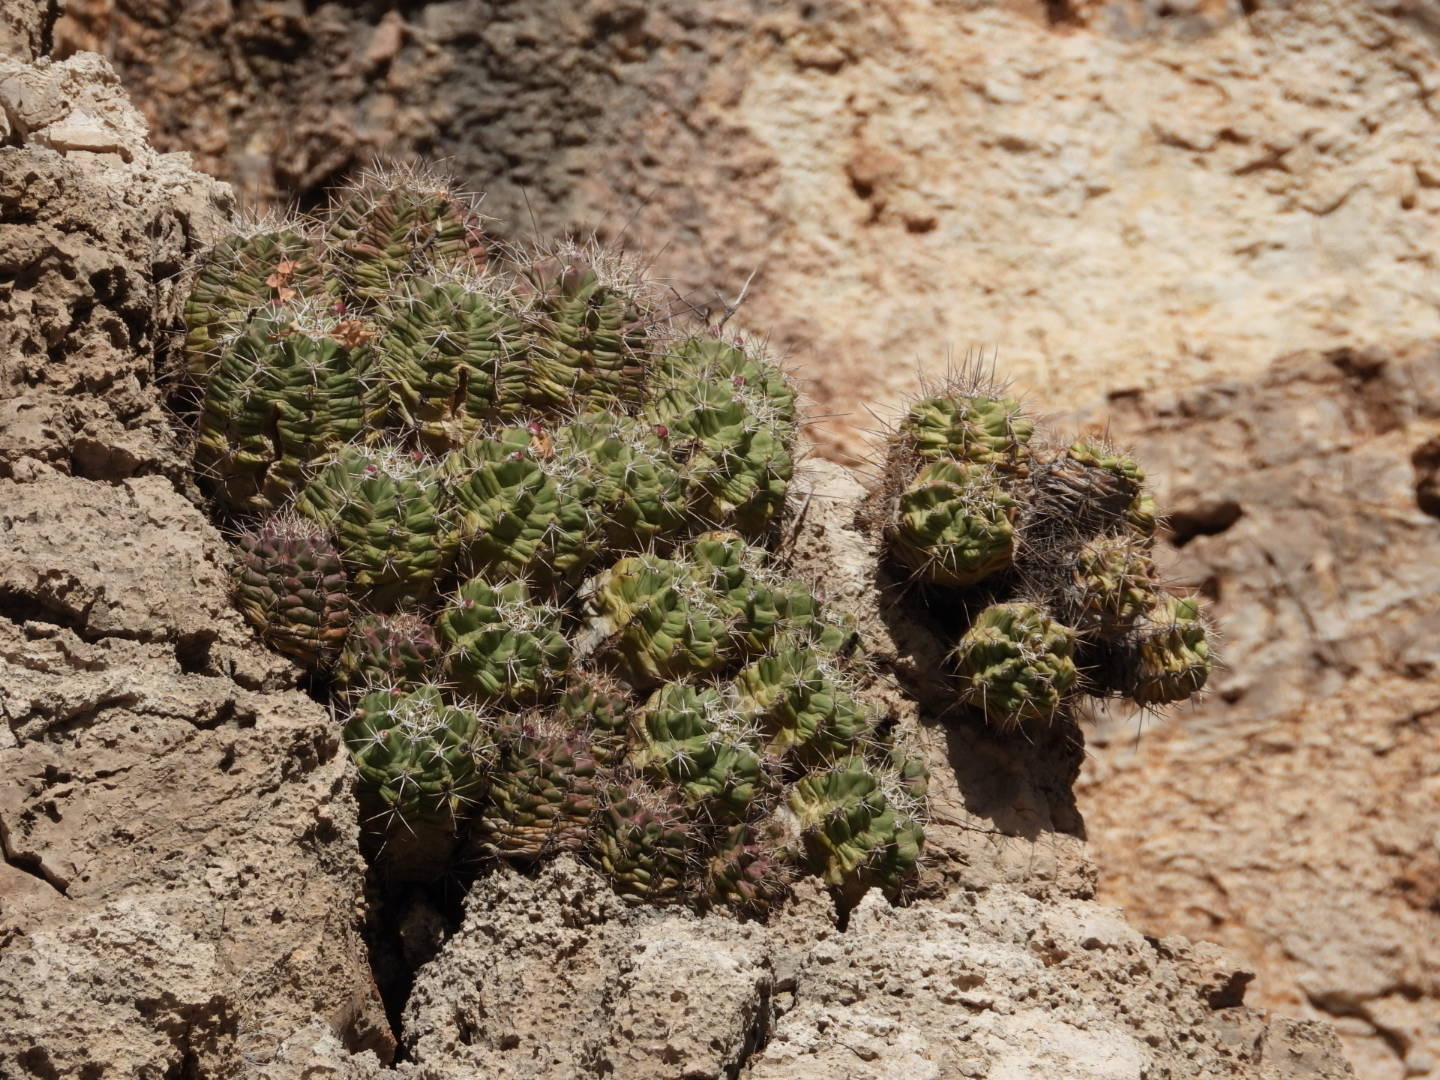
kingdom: Plantae
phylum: Tracheophyta
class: Magnoliopsida
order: Caryophyllales
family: Cactaceae
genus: Echinocereus
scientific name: Echinocereus coccineus
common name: Scarlet hedgehog cactus
